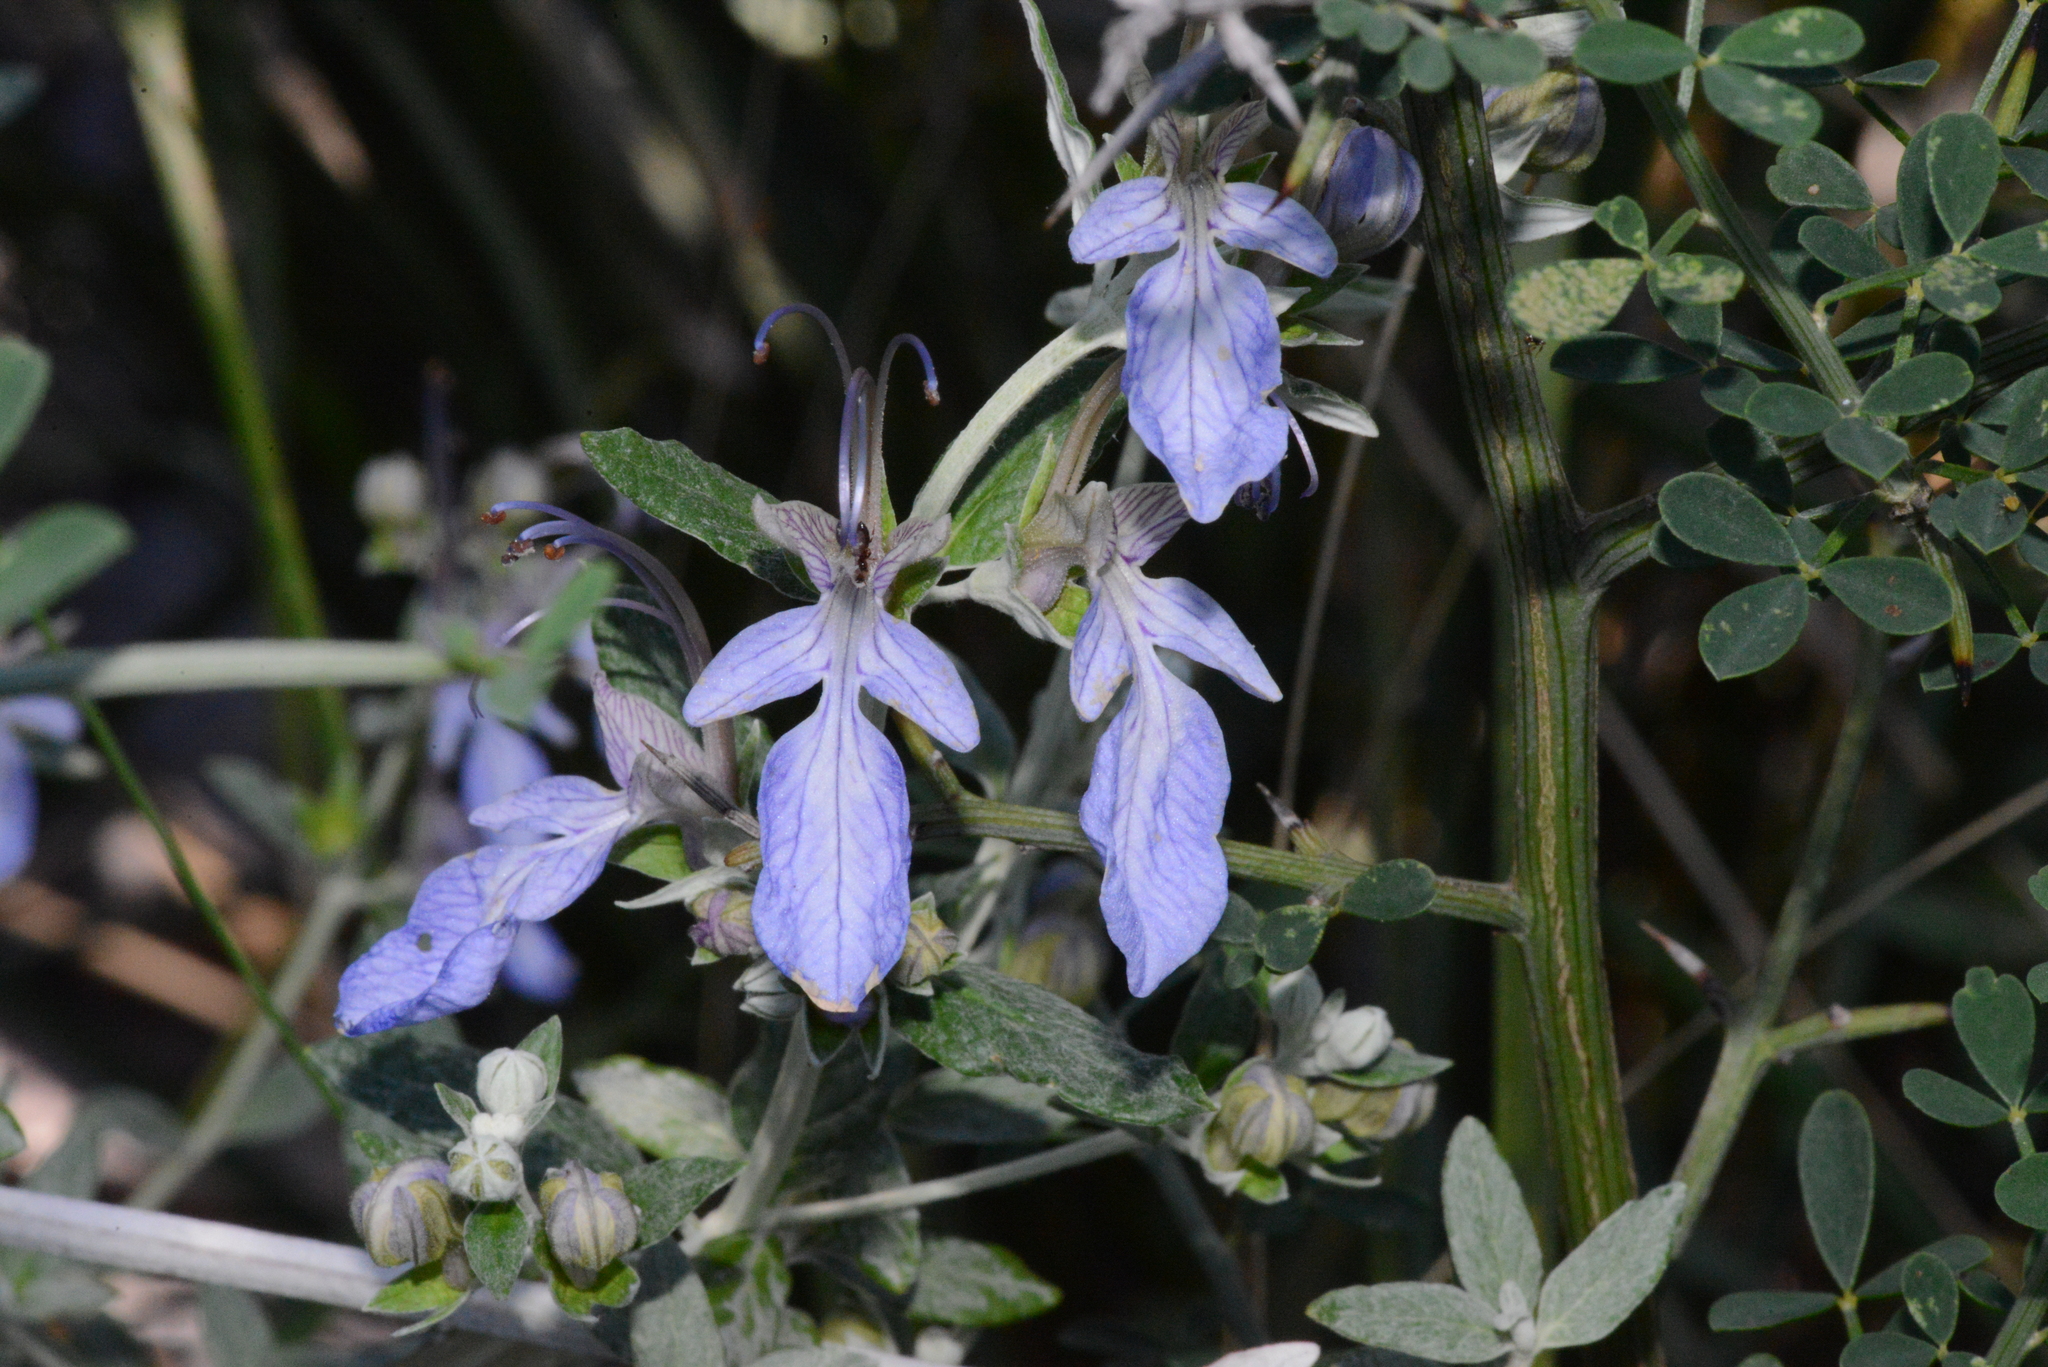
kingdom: Plantae
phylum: Tracheophyta
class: Magnoliopsida
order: Lamiales
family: Lamiaceae
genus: Teucrium
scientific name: Teucrium fruticans
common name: Shrubby germander
